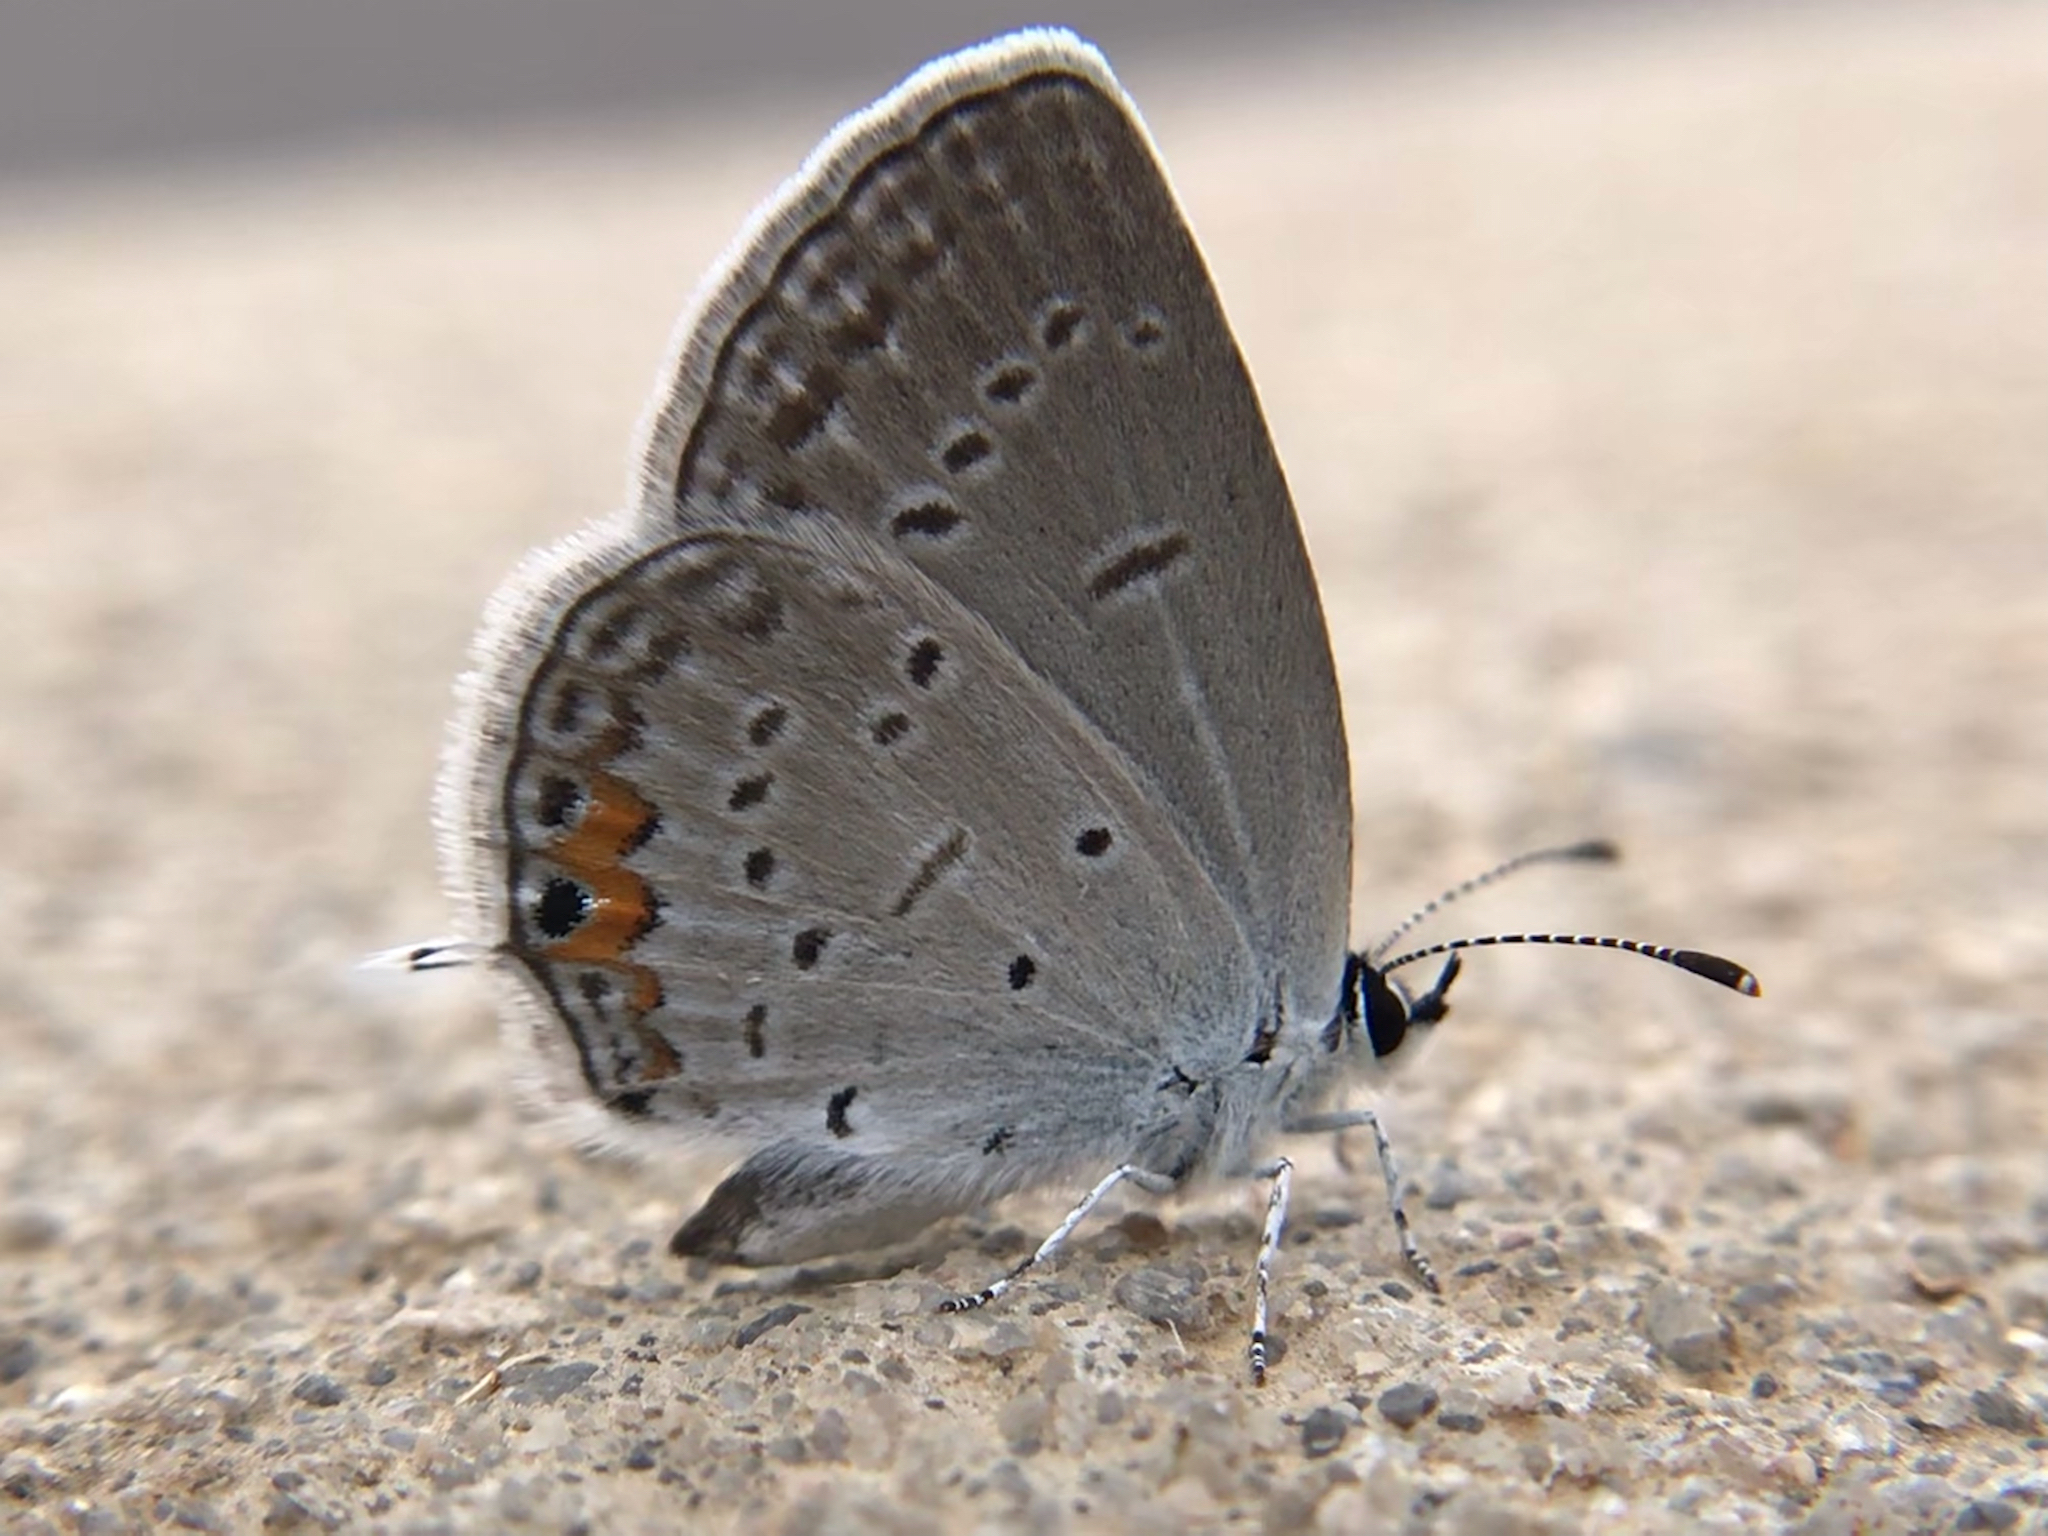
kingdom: Animalia
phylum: Arthropoda
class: Insecta
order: Lepidoptera
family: Lycaenidae
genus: Elkalyce
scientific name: Elkalyce comyntas
